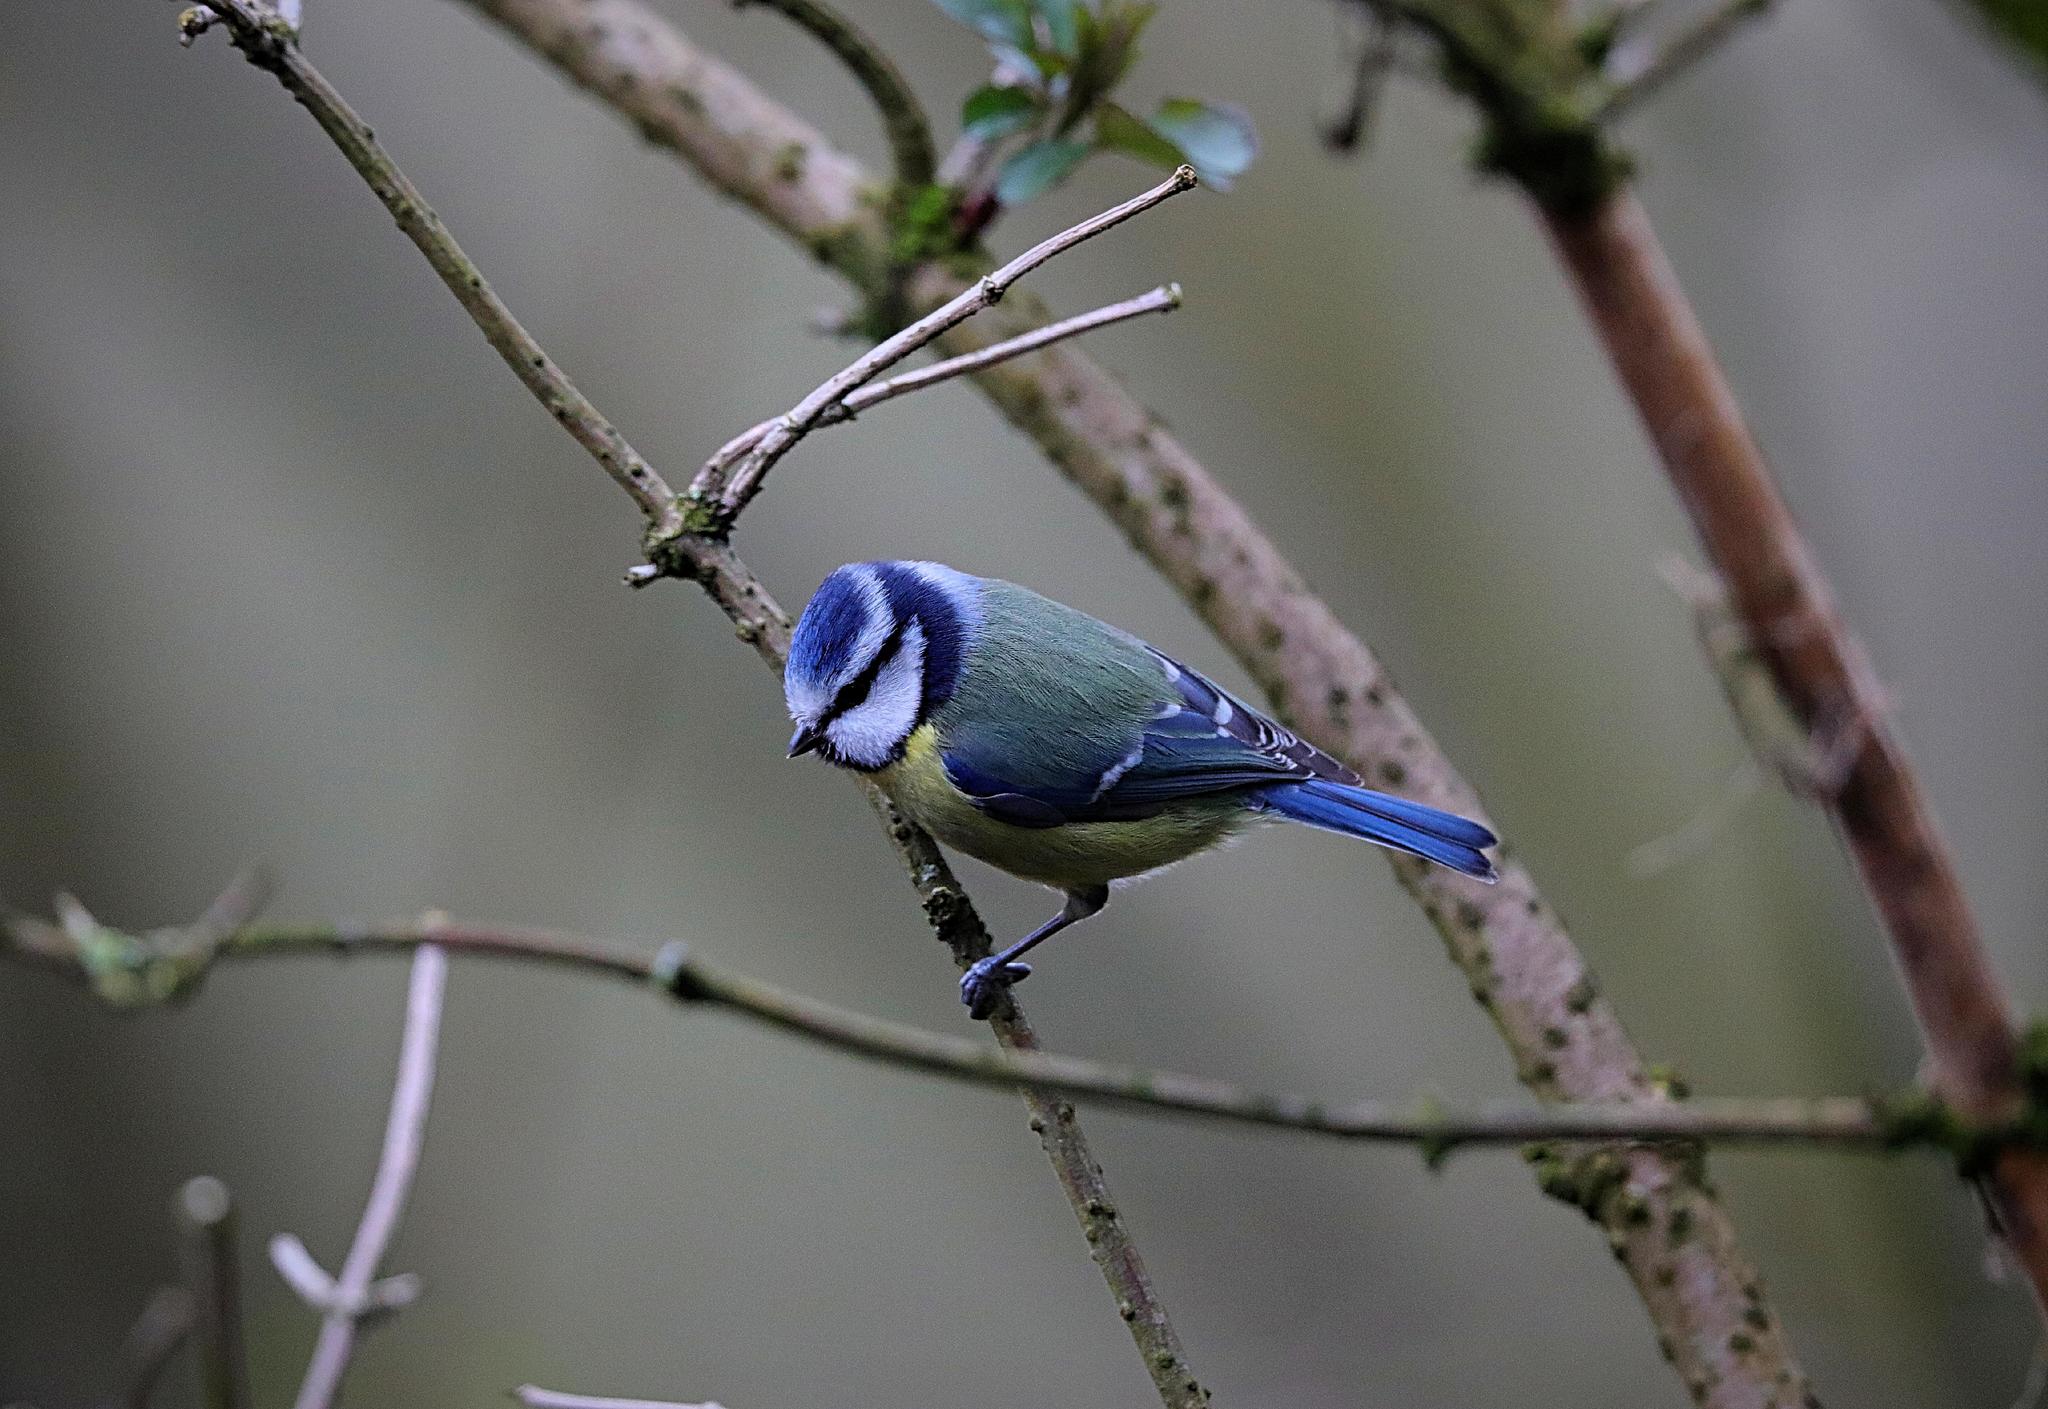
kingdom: Animalia
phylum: Chordata
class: Aves
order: Passeriformes
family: Paridae
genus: Cyanistes
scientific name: Cyanistes caeruleus
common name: Eurasian blue tit
